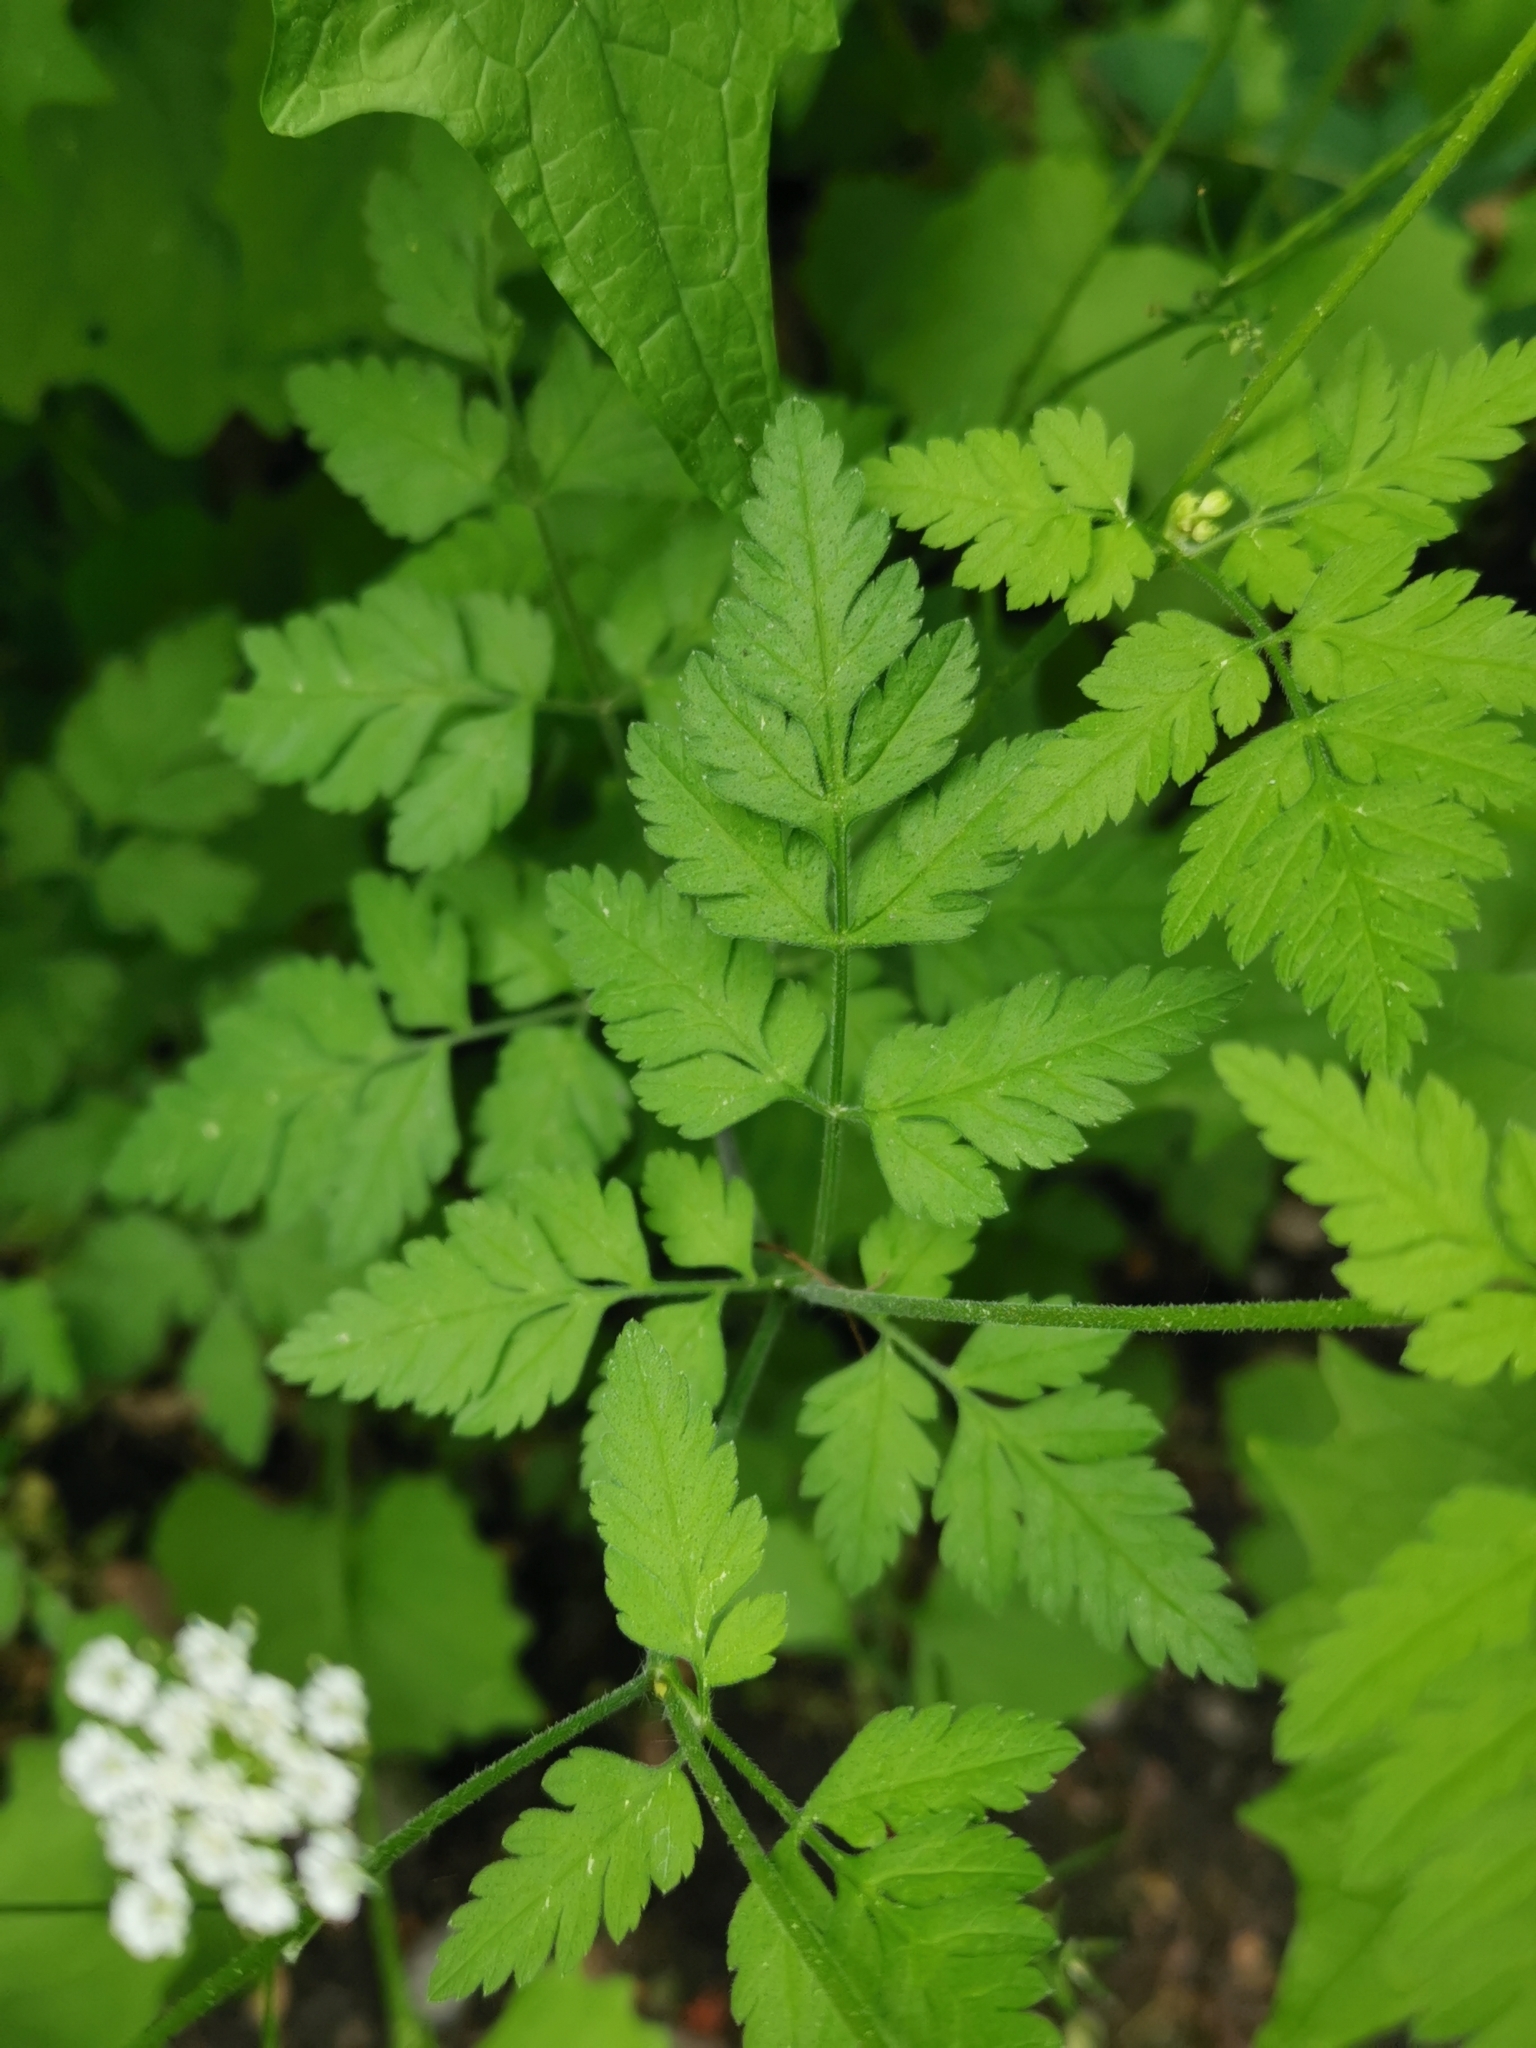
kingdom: Plantae
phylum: Tracheophyta
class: Magnoliopsida
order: Apiales
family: Apiaceae
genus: Chaerophyllum
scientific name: Chaerophyllum temulum
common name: Rough chervil
